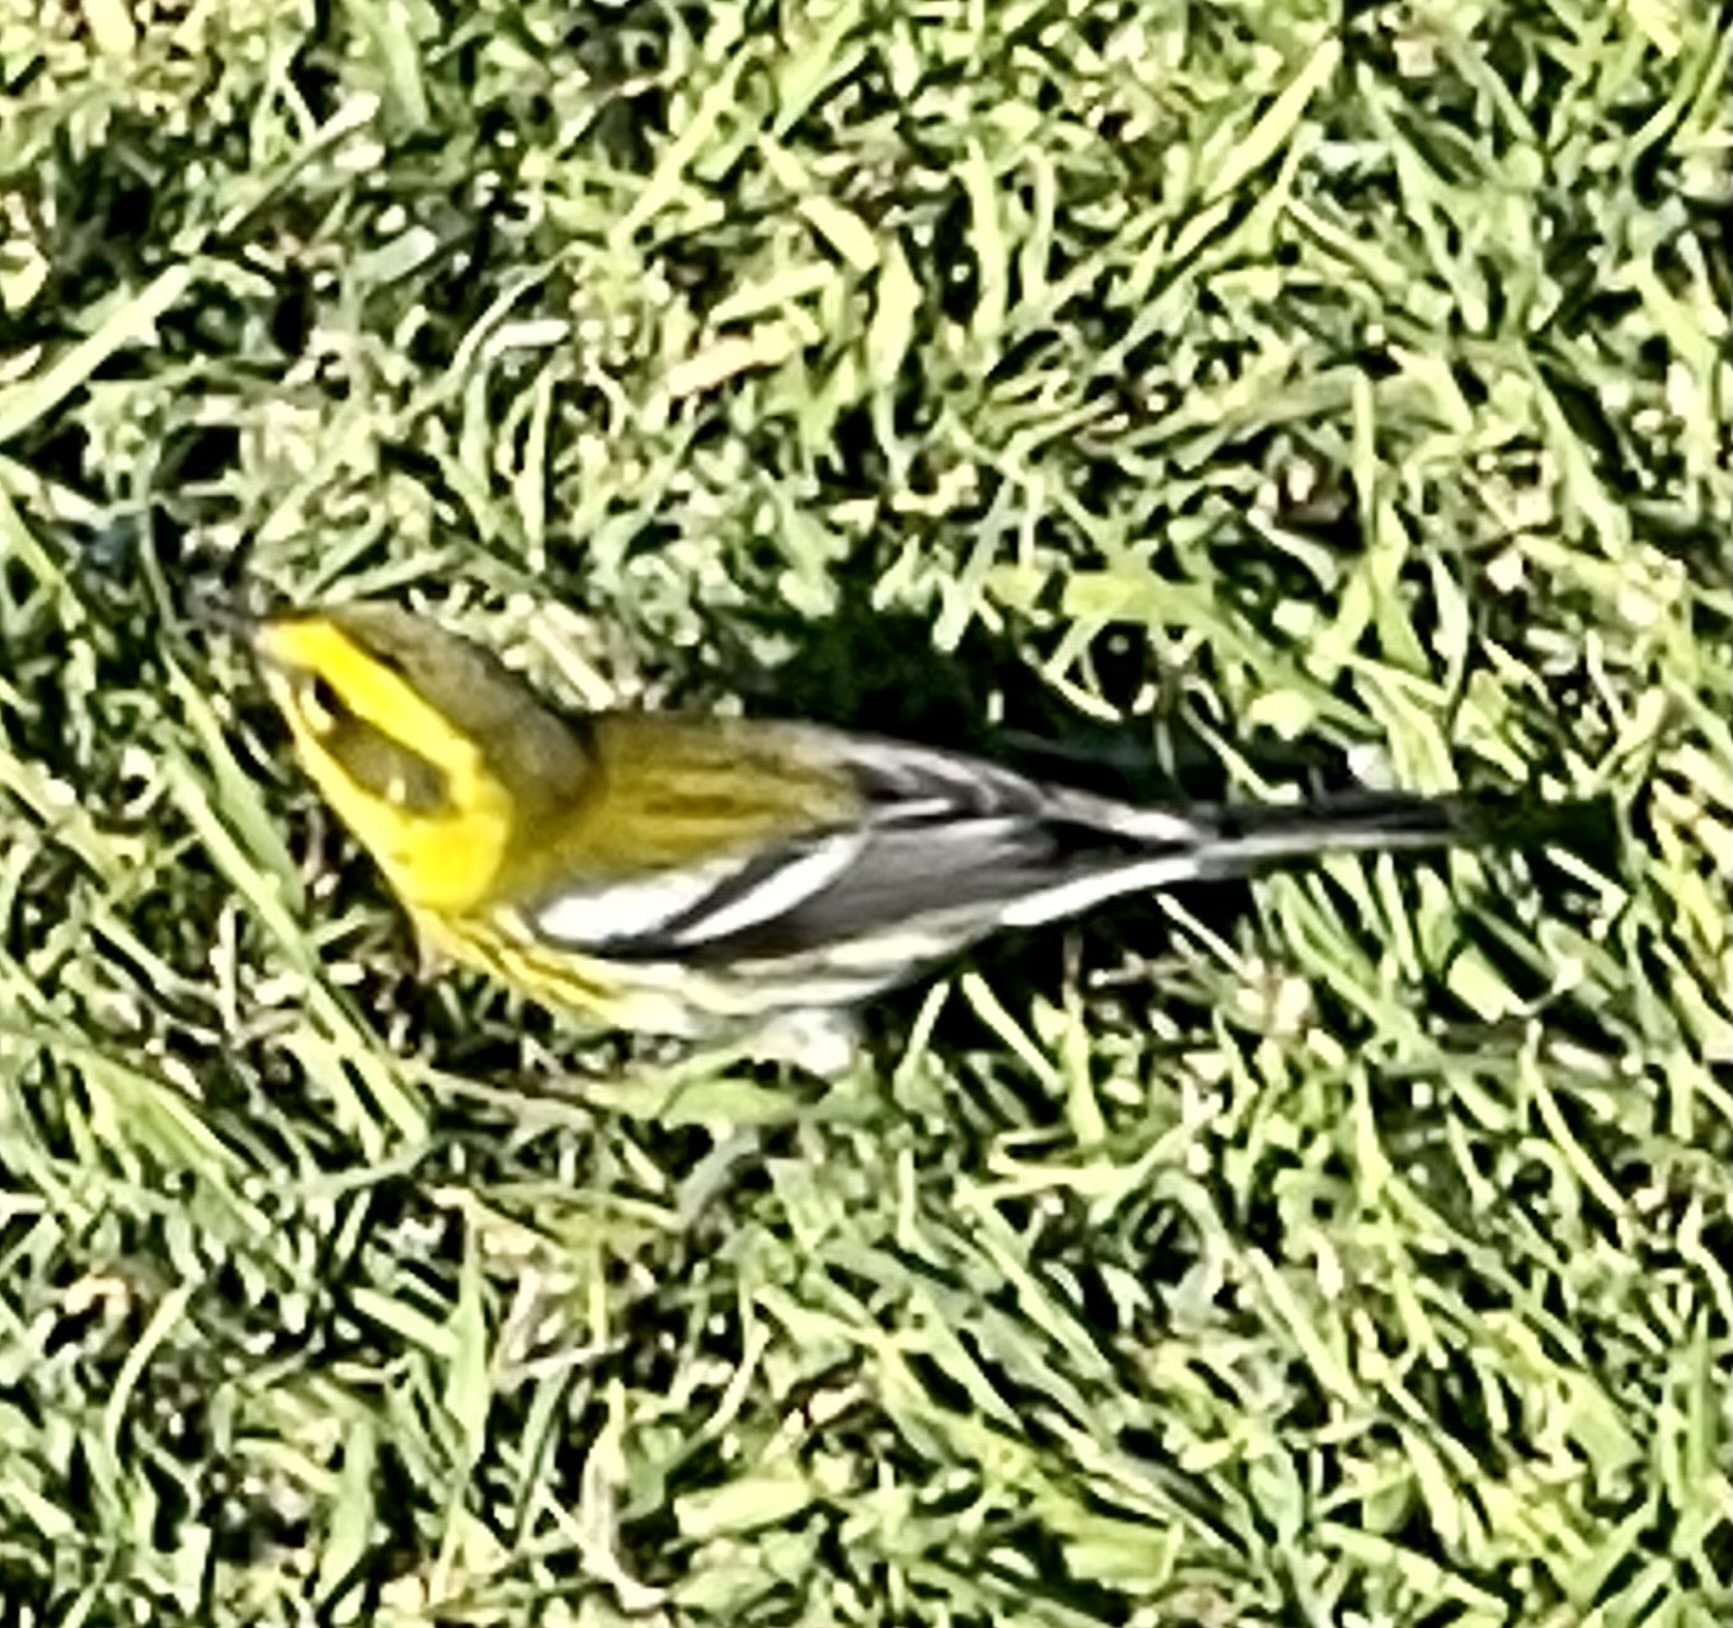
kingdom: Animalia
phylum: Chordata
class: Aves
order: Passeriformes
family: Parulidae
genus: Setophaga
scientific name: Setophaga townsendi
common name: Townsend's warbler
